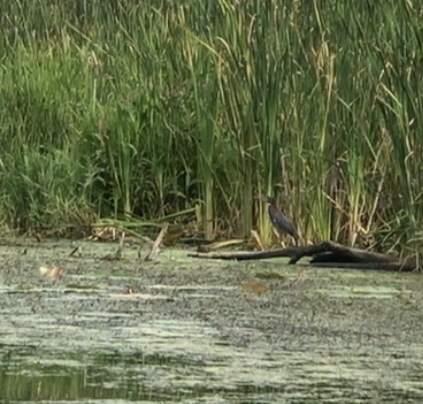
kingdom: Animalia
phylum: Chordata
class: Aves
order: Pelecaniformes
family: Ardeidae
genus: Butorides
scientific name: Butorides virescens
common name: Green heron
